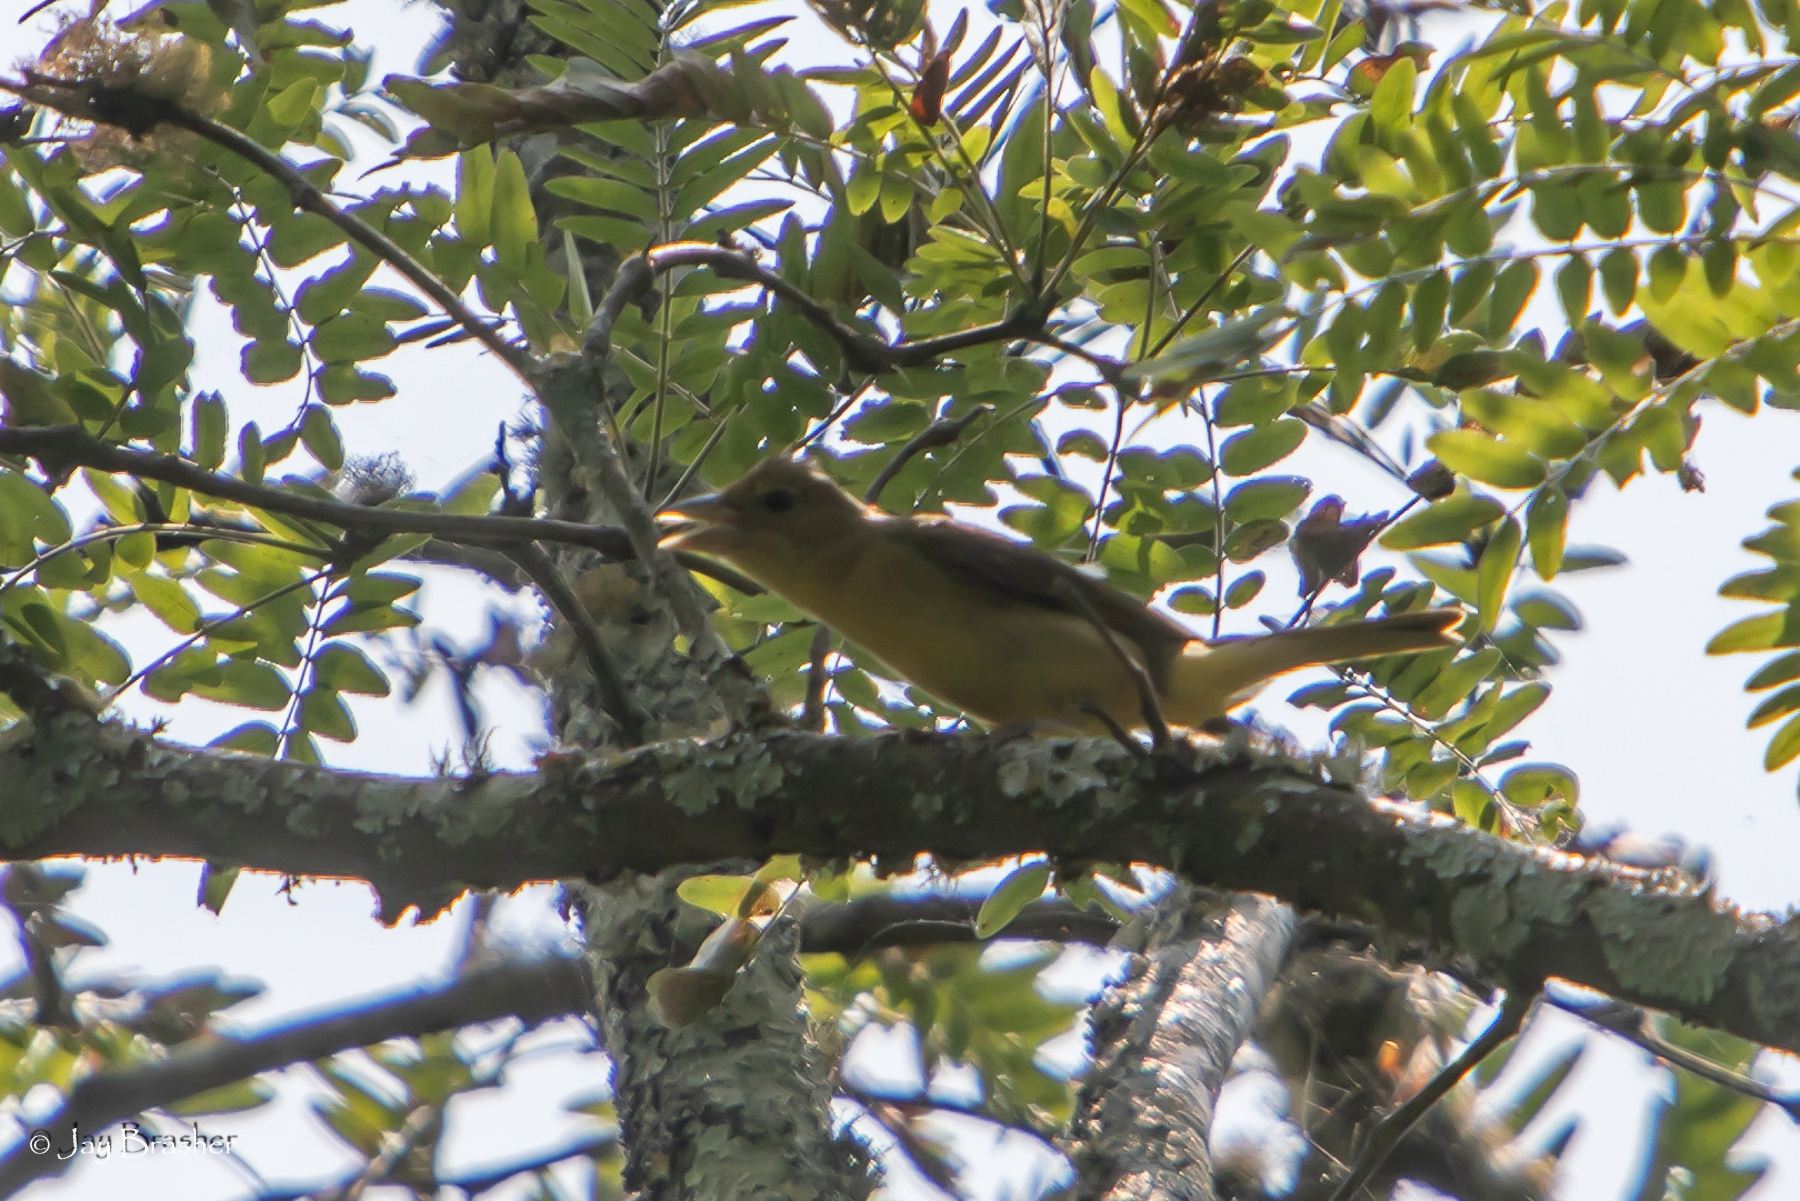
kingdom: Animalia
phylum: Chordata
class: Aves
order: Passeriformes
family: Cardinalidae
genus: Piranga
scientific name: Piranga rubra
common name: Summer tanager
